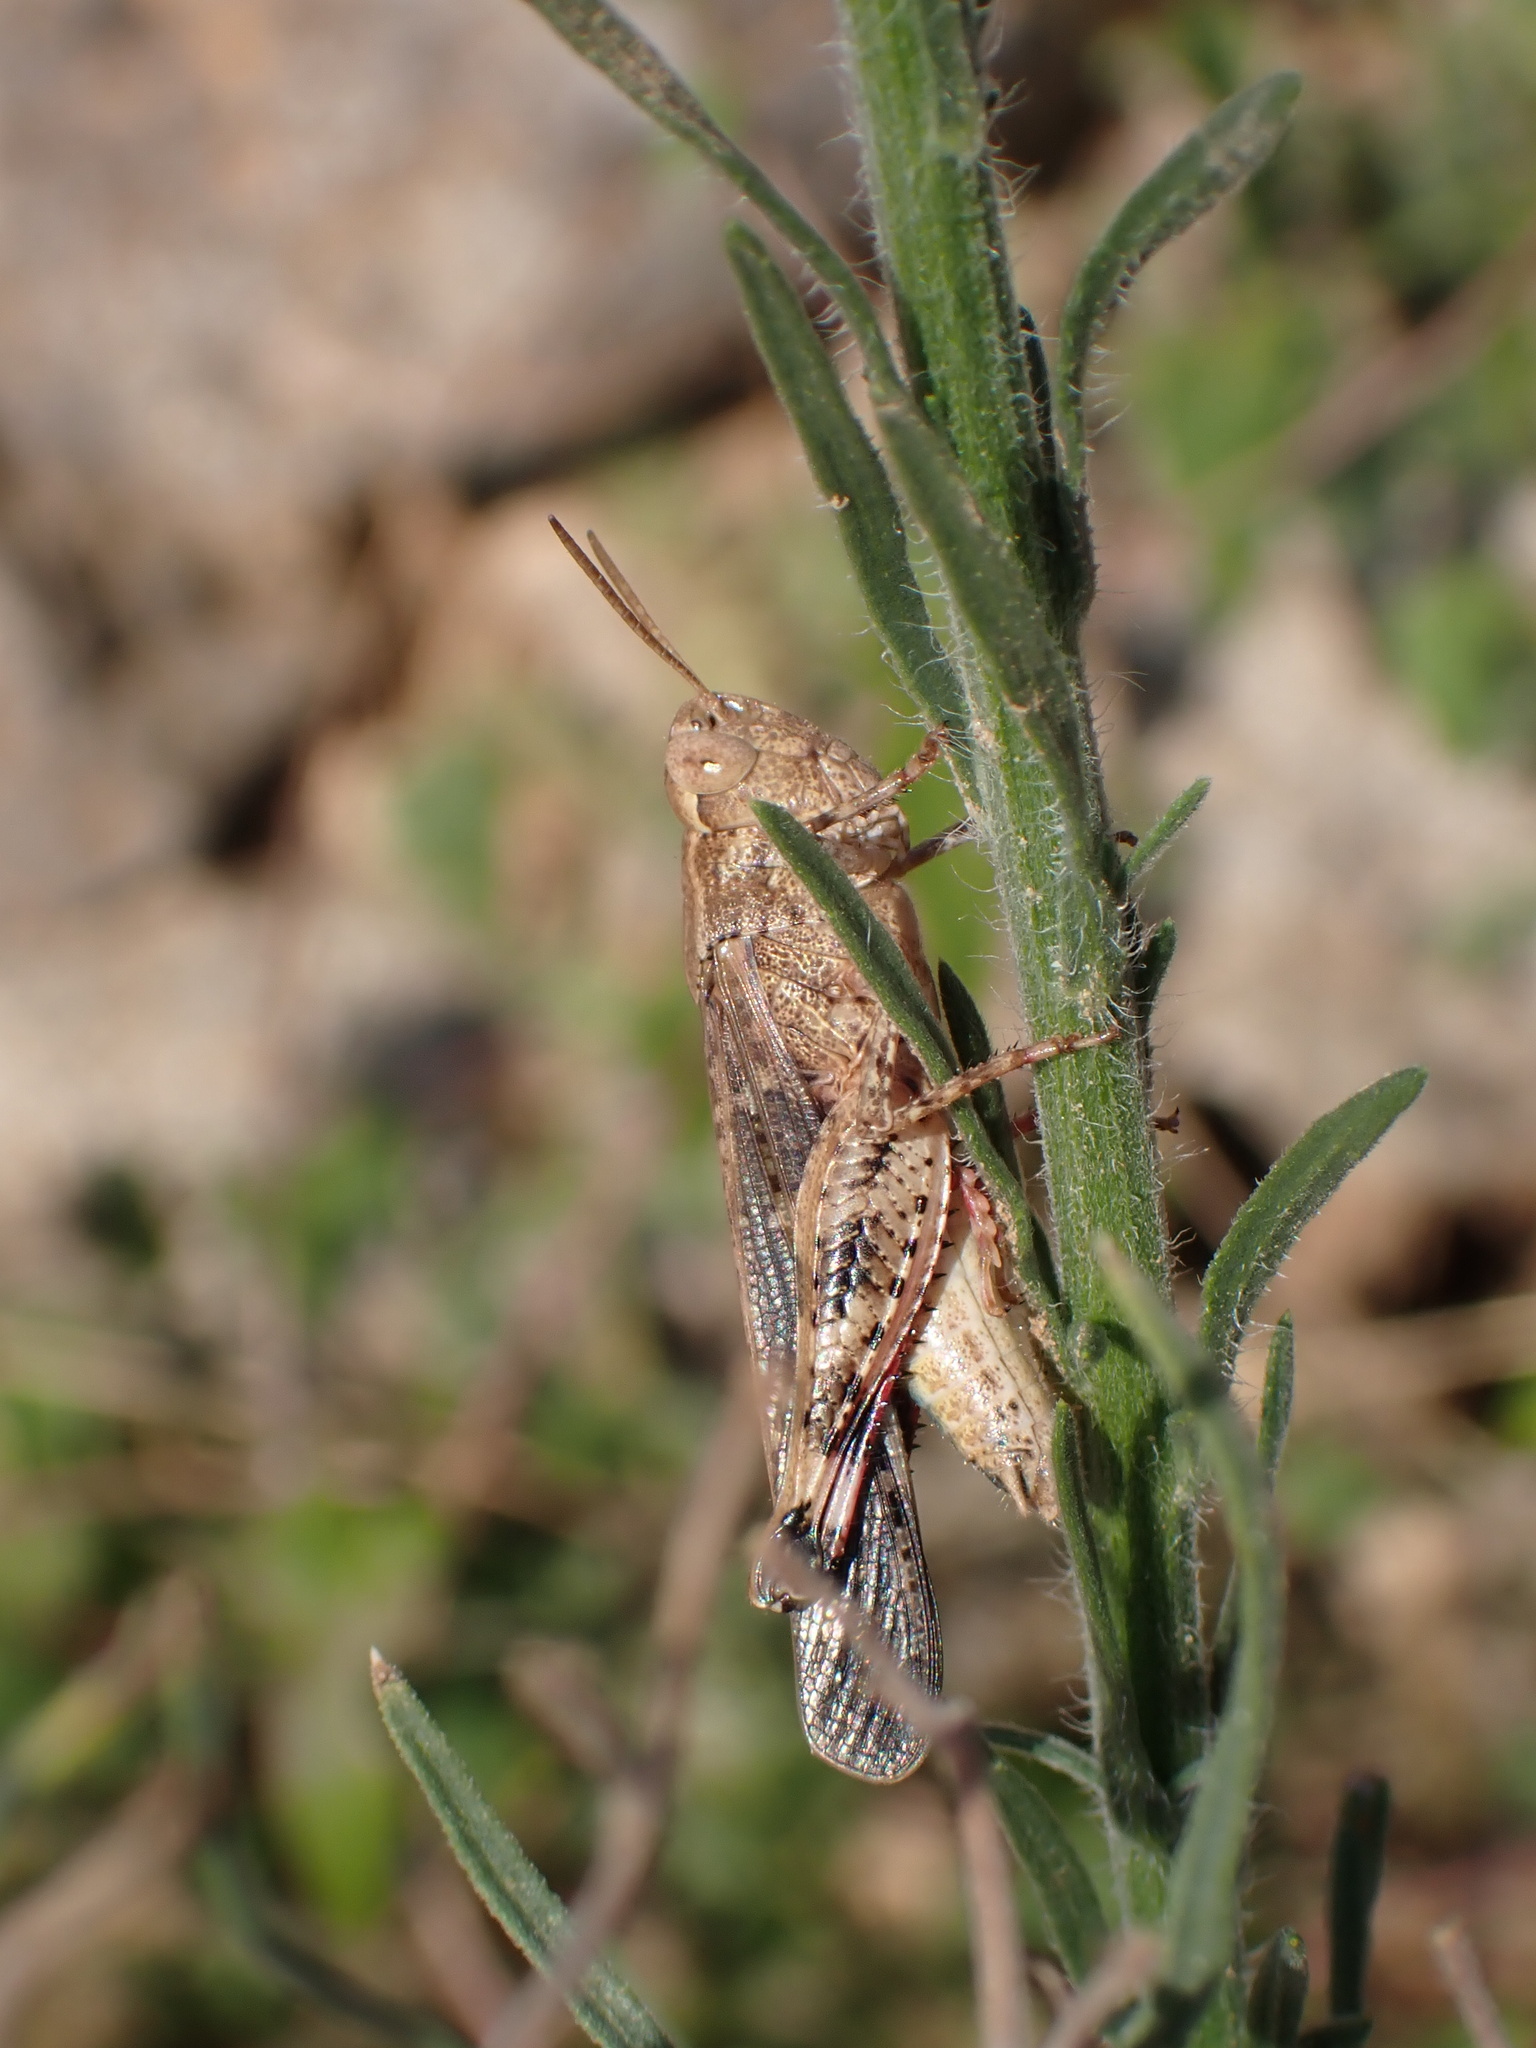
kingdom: Animalia
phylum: Arthropoda
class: Insecta
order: Orthoptera
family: Acrididae
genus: Aiolopus
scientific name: Aiolopus strepens
